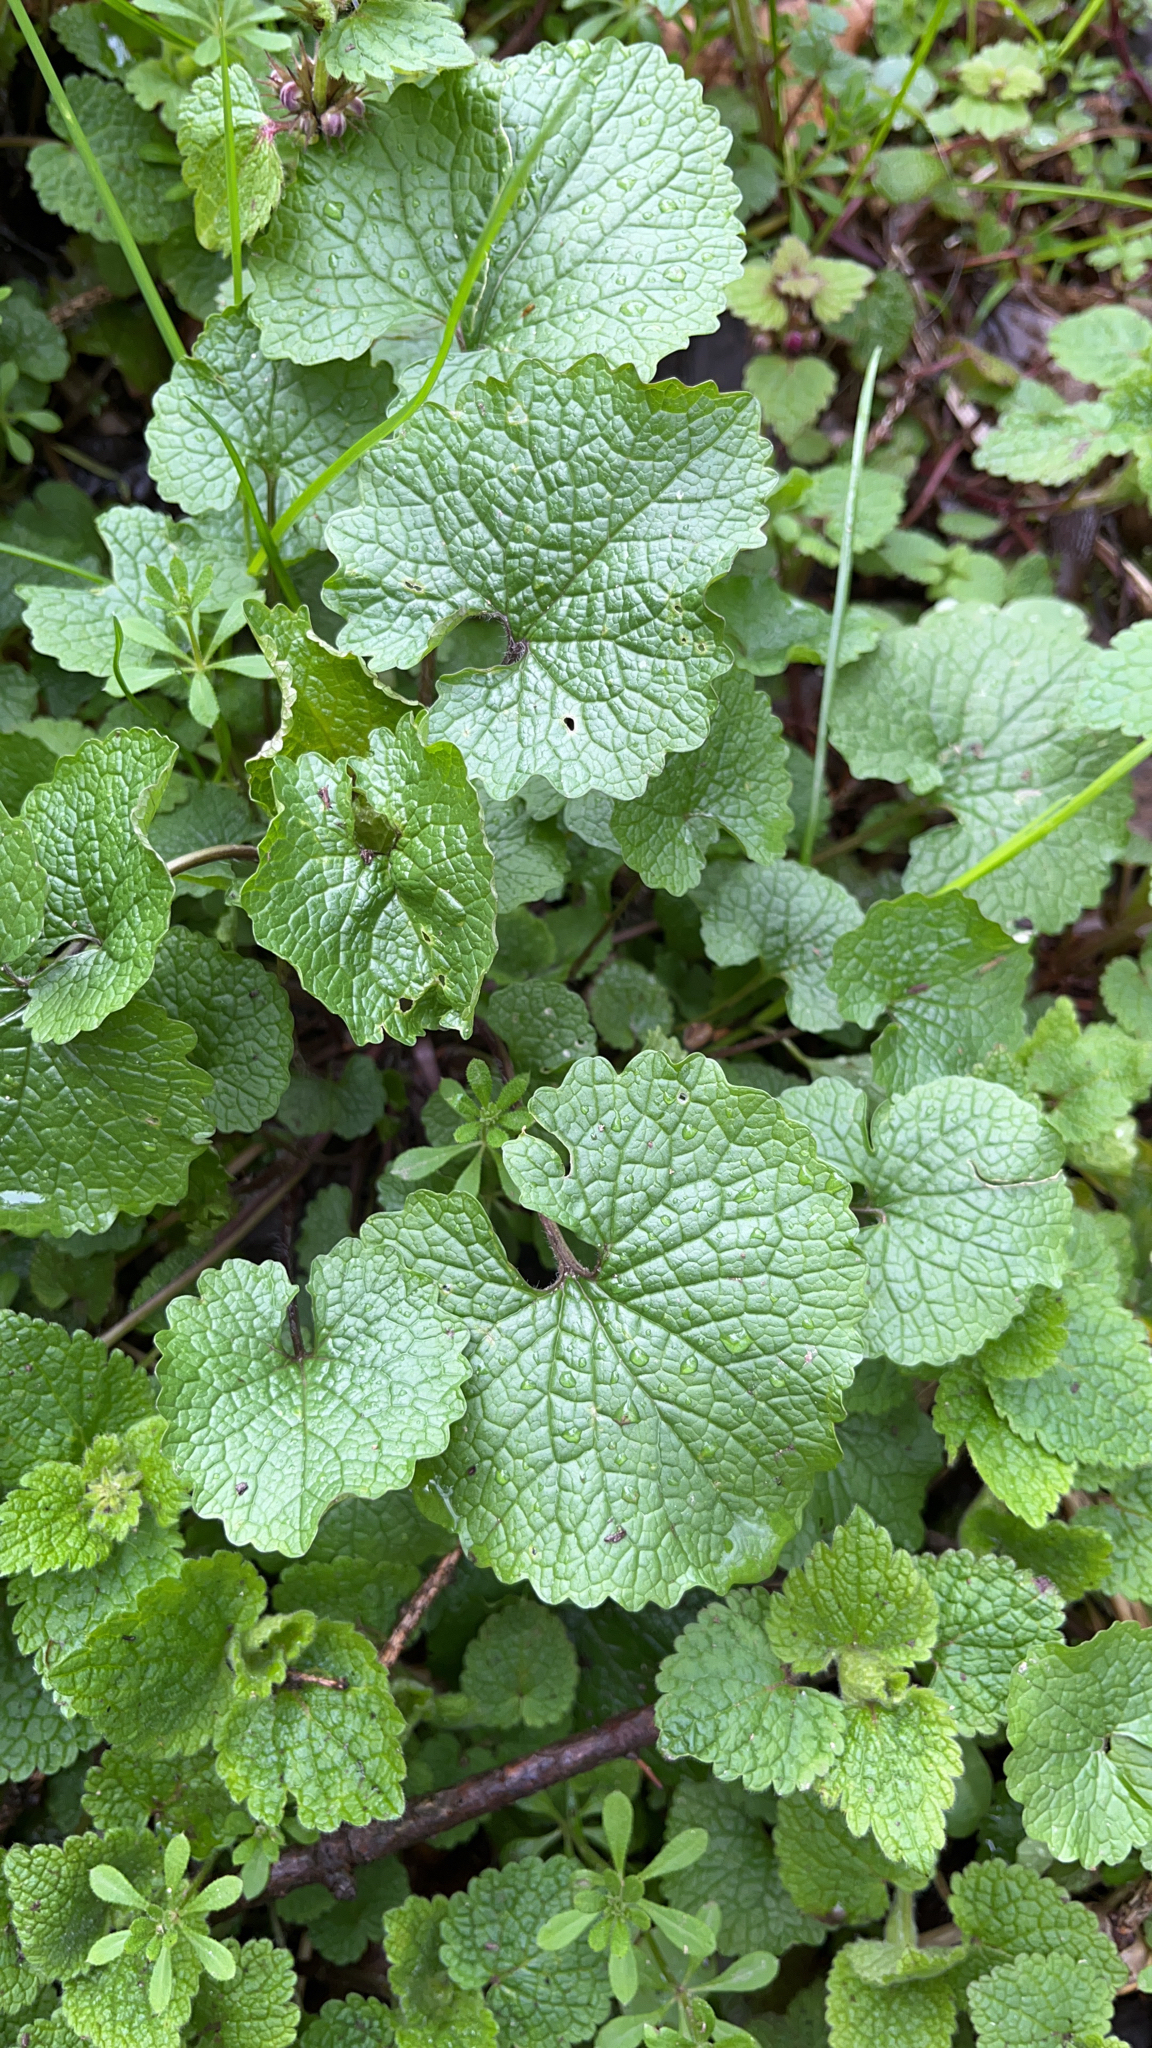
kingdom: Plantae
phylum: Tracheophyta
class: Magnoliopsida
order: Brassicales
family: Brassicaceae
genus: Alliaria
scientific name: Alliaria petiolata
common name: Garlic mustard
